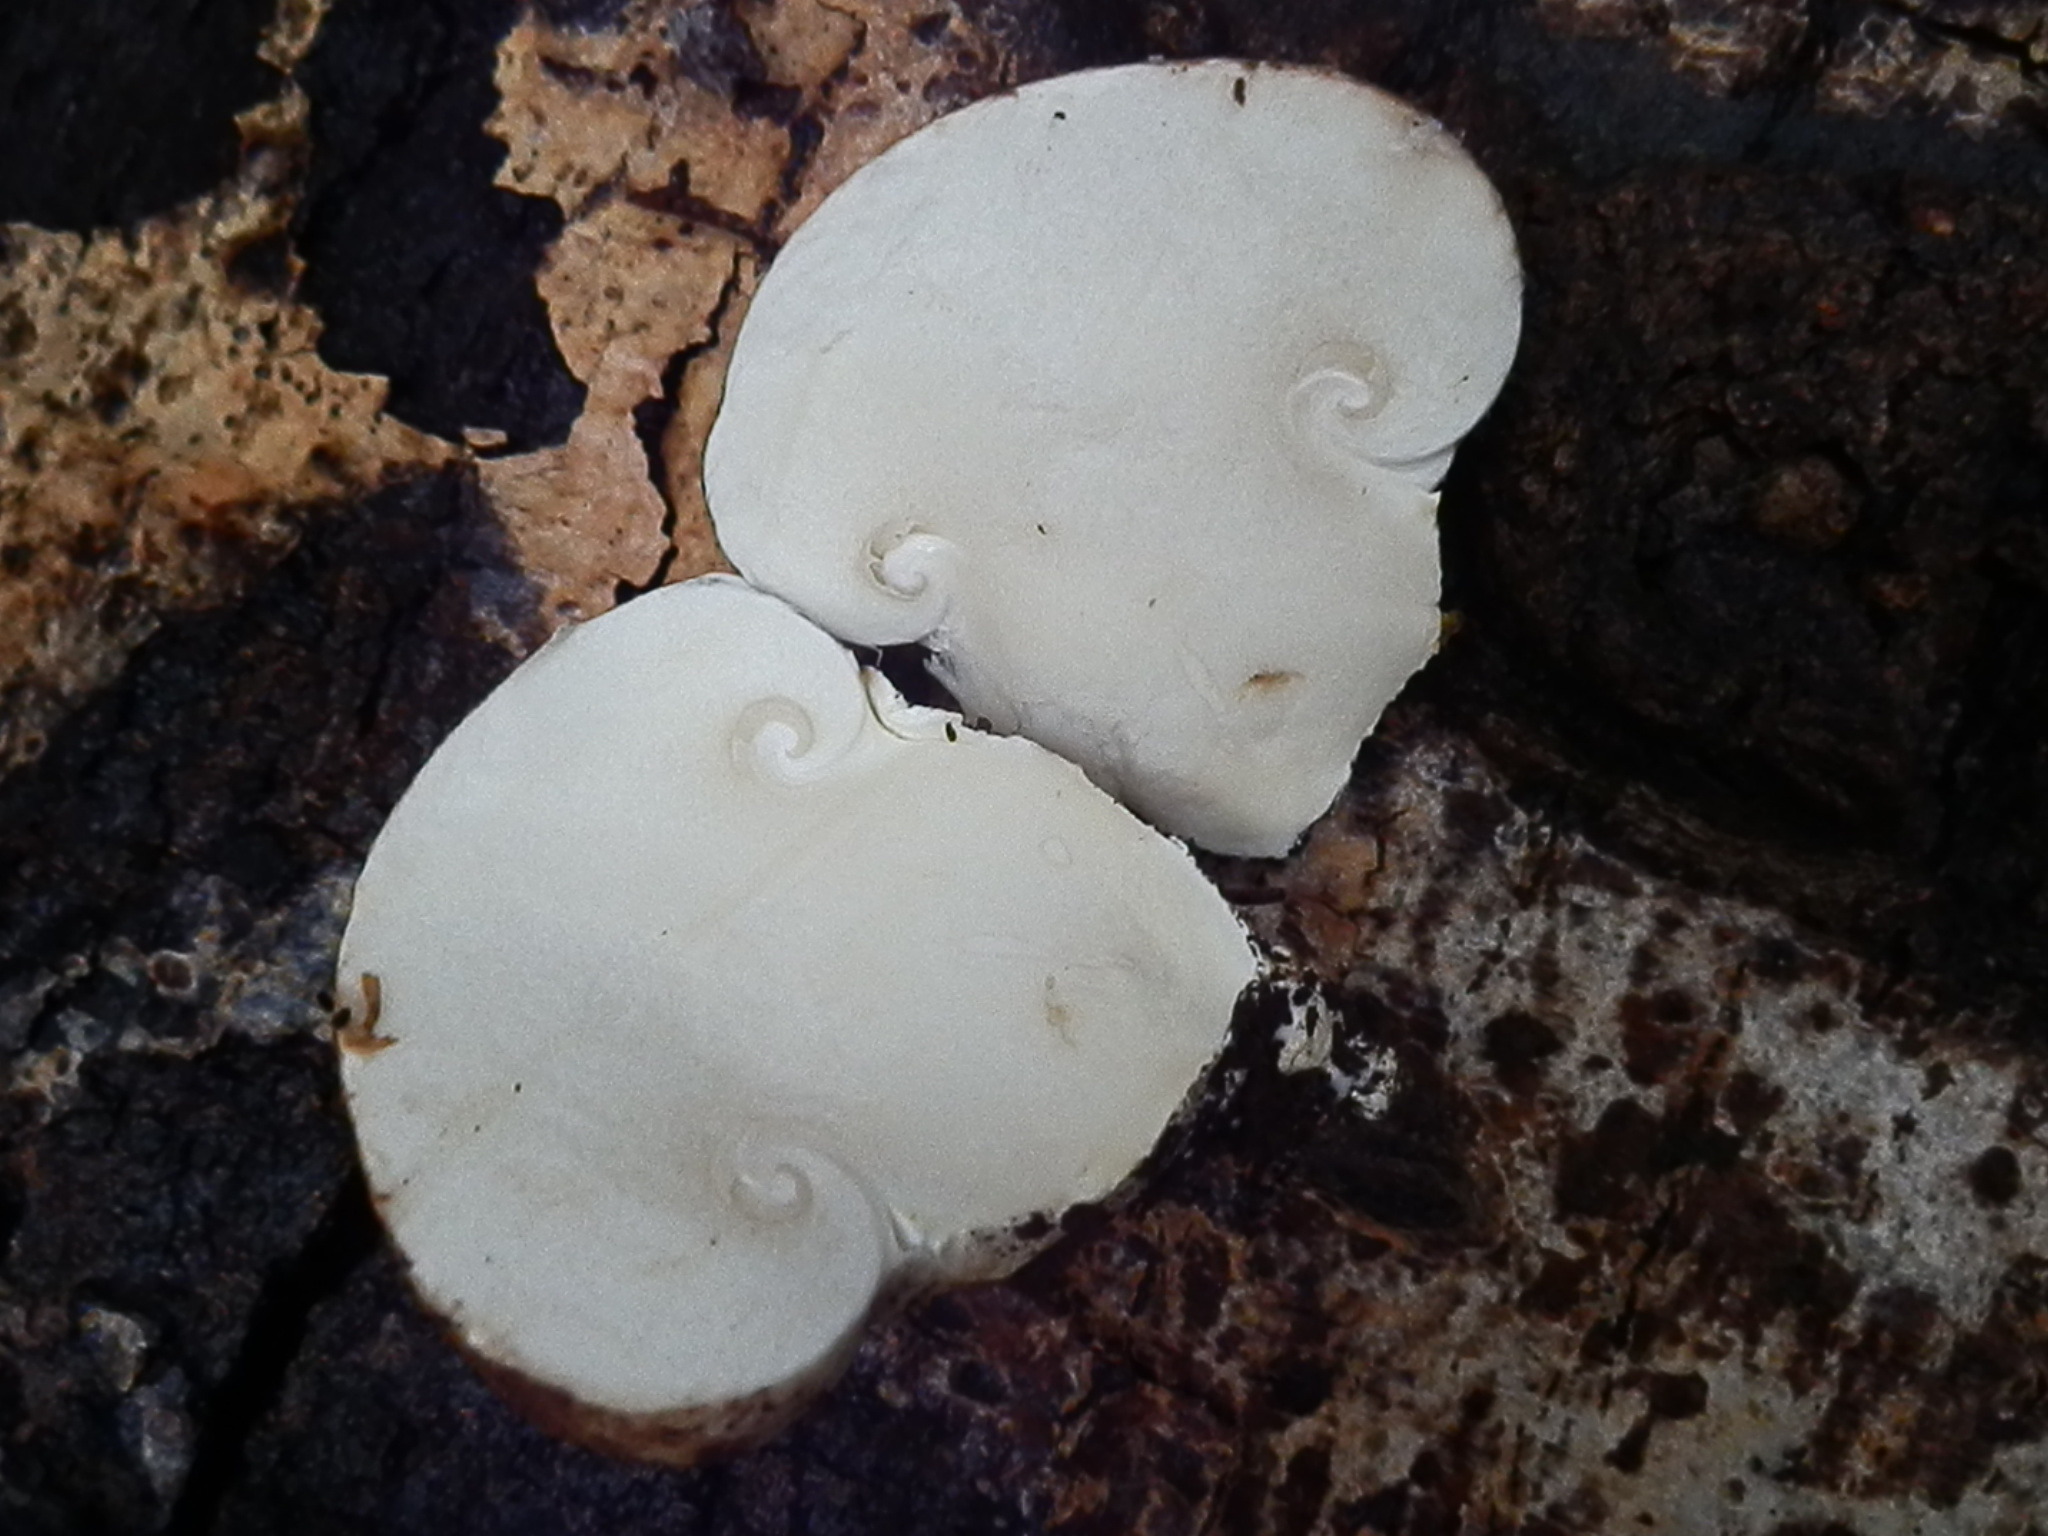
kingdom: Fungi
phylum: Basidiomycota
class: Agaricomycetes
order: Agaricales
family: Biannulariaceae
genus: Catathelasma
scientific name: Catathelasma singeri
